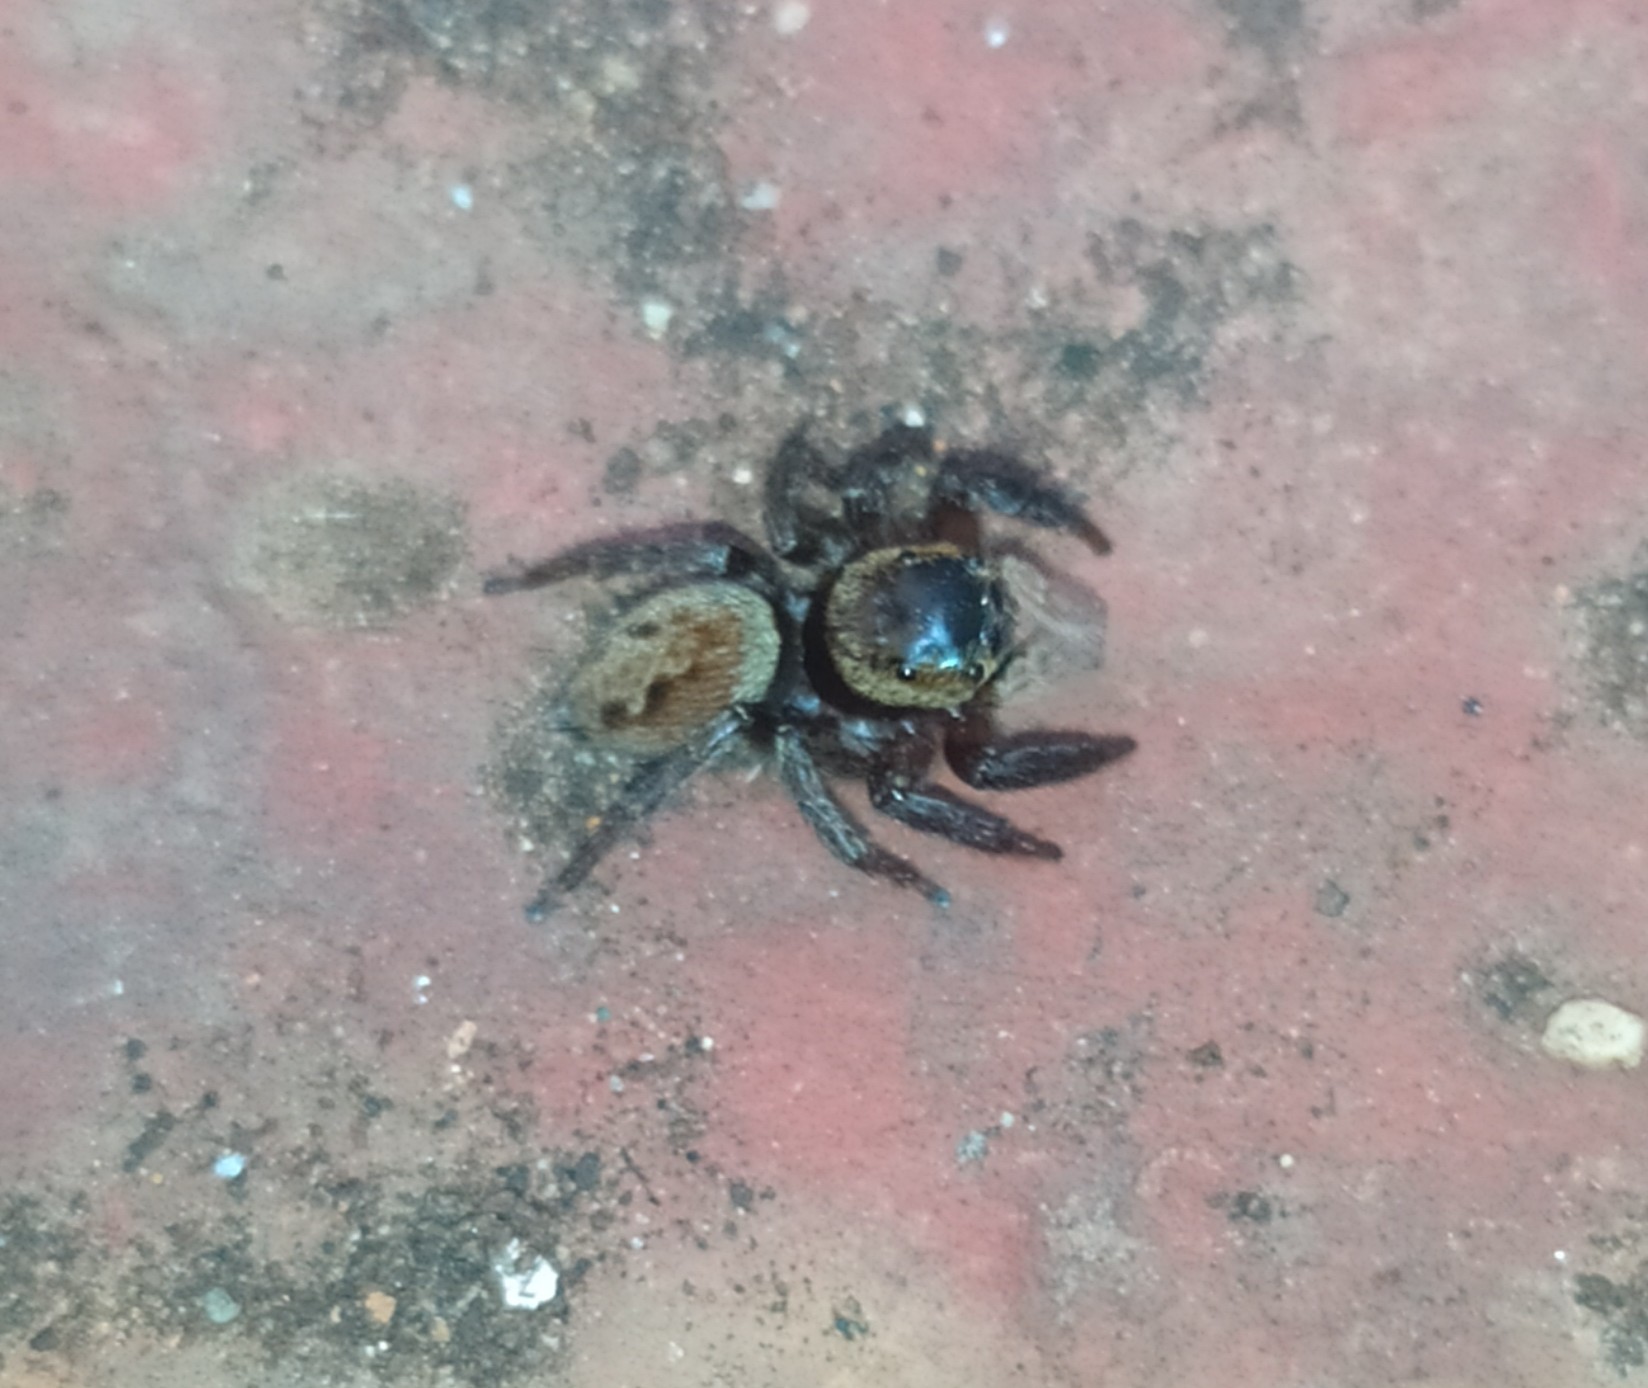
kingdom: Animalia
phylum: Arthropoda
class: Arachnida
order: Araneae
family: Salticidae
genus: Hasarius
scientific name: Hasarius adansoni
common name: Jumping spider
